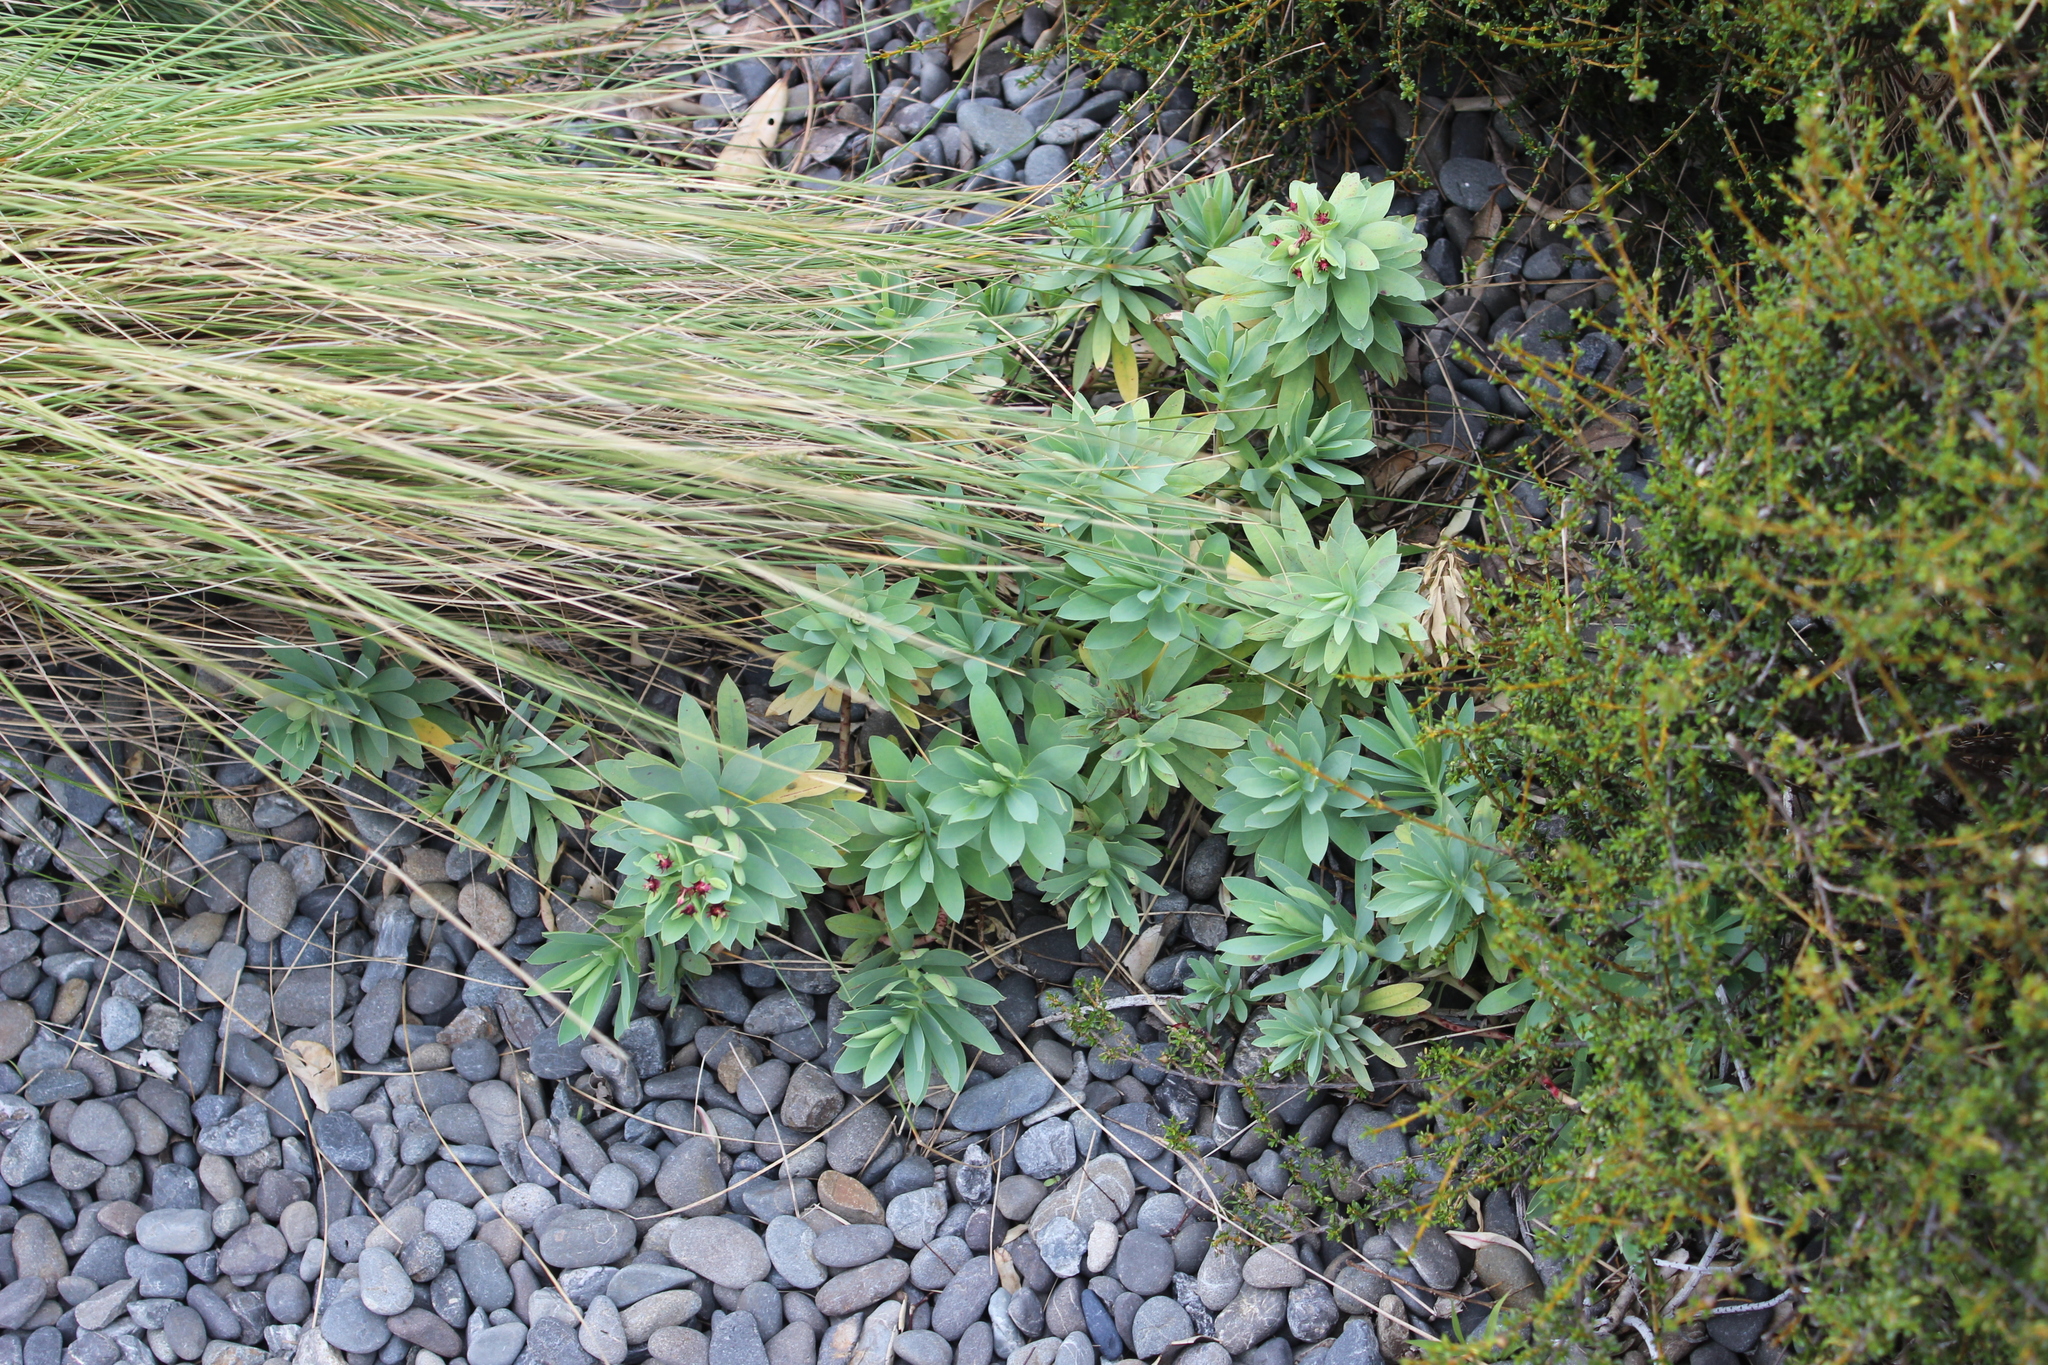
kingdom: Plantae
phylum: Tracheophyta
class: Magnoliopsida
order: Malpighiales
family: Euphorbiaceae
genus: Euphorbia
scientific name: Euphorbia glauca
